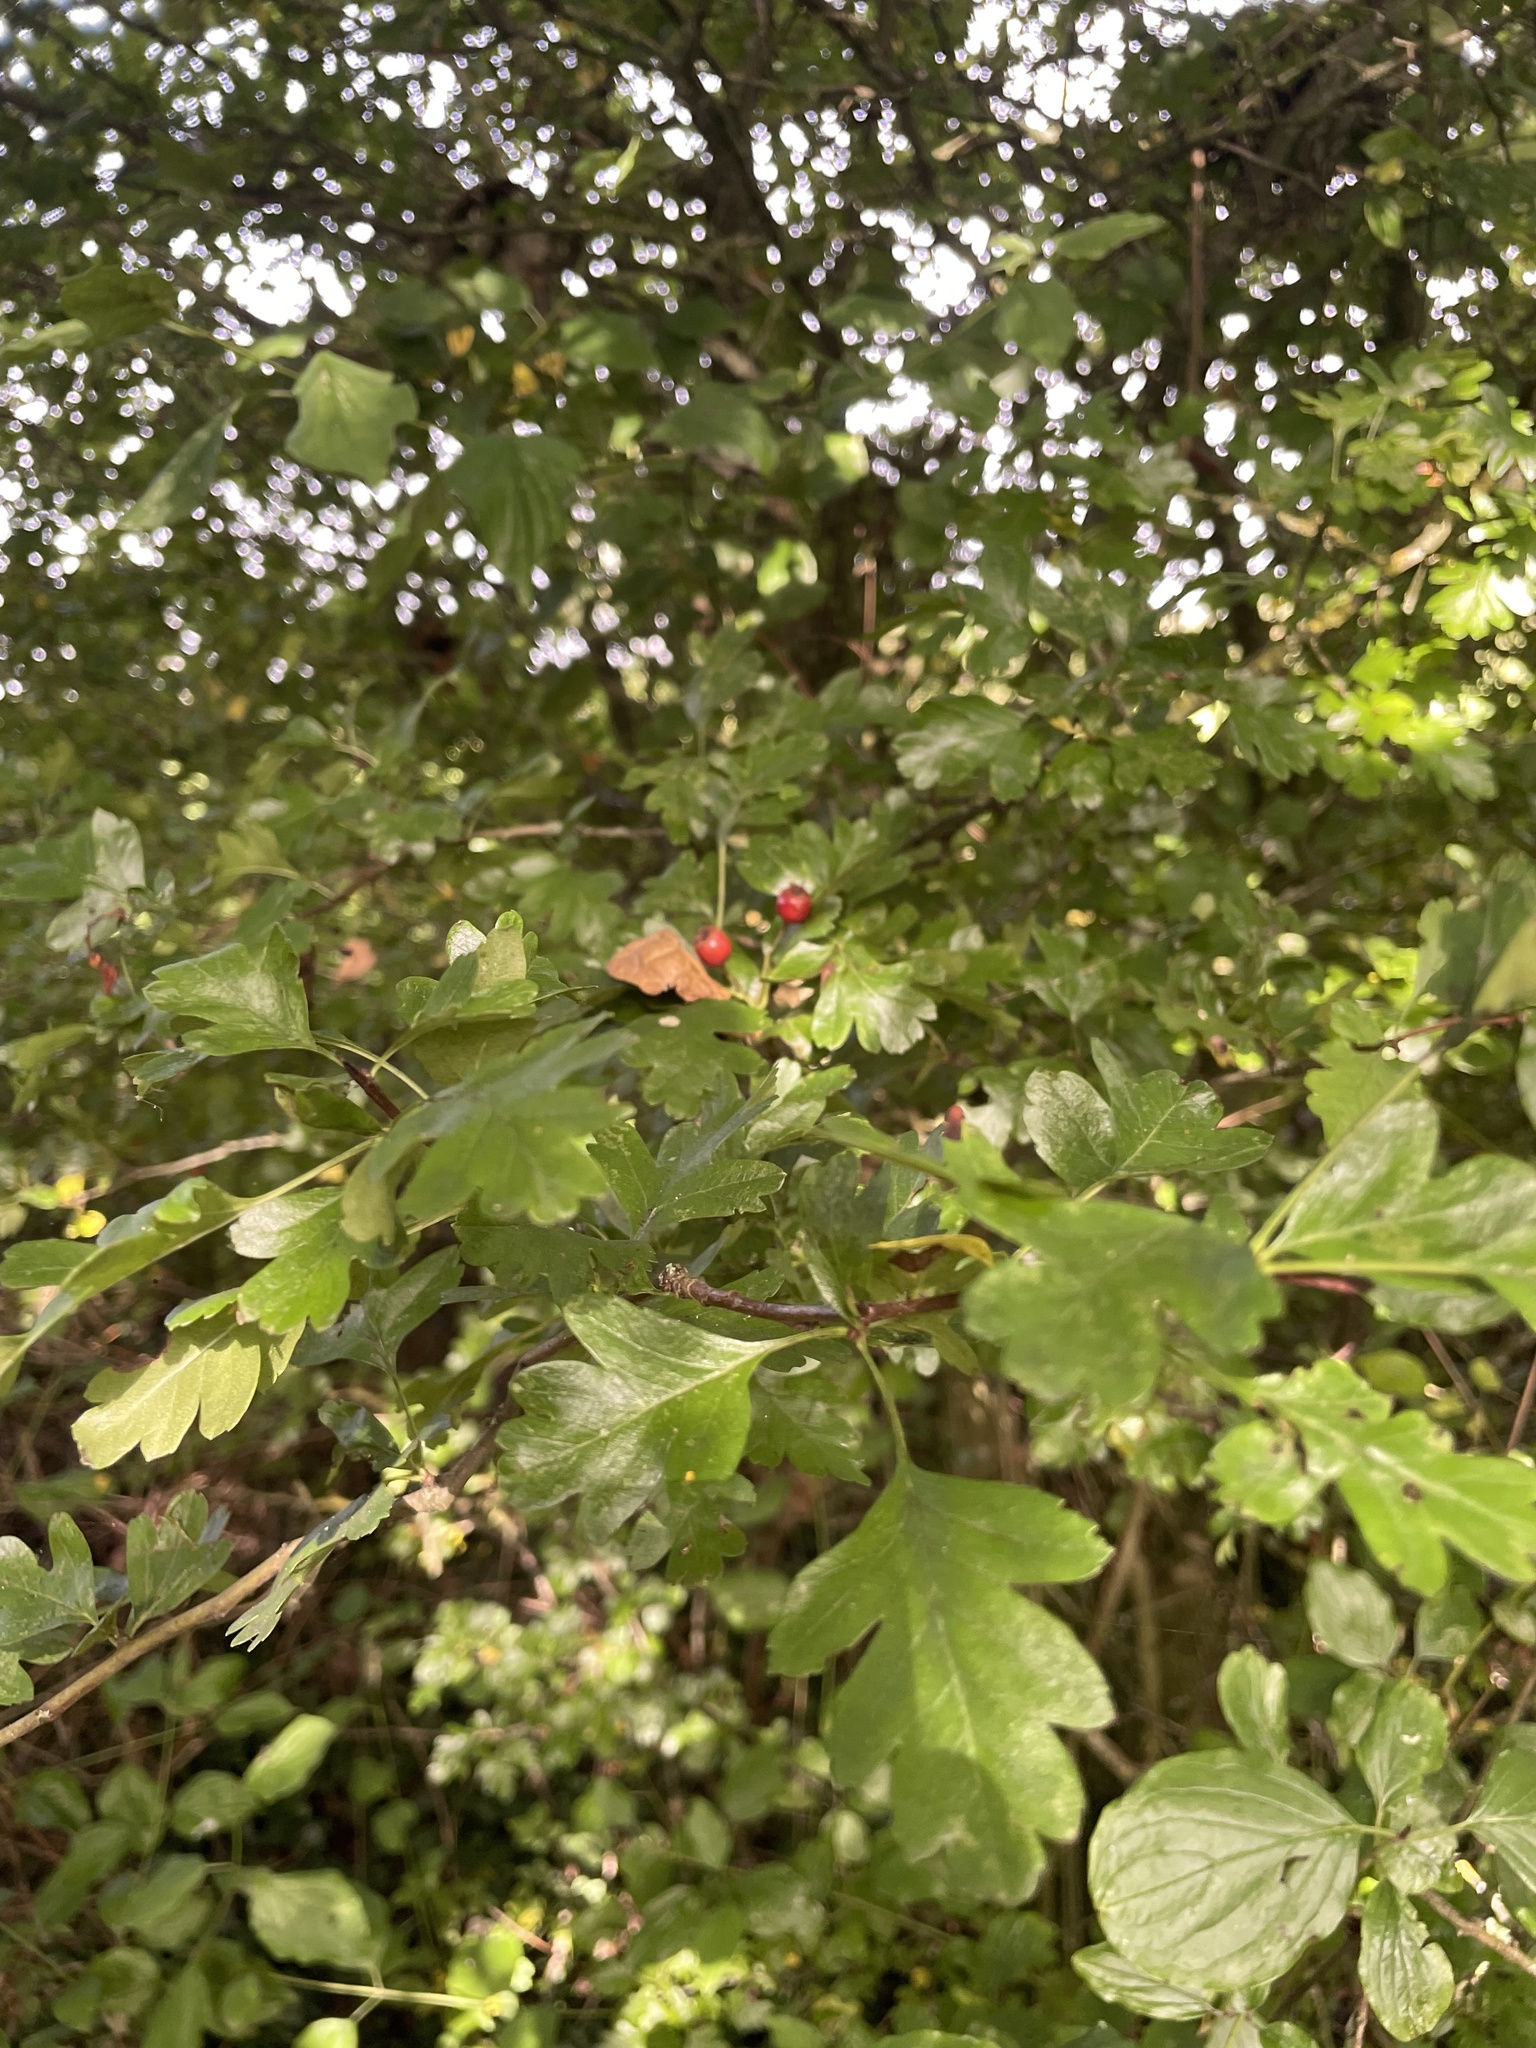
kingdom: Plantae
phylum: Tracheophyta
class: Magnoliopsida
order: Rosales
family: Rosaceae
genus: Crataegus
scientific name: Crataegus monogyna
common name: Hawthorn
